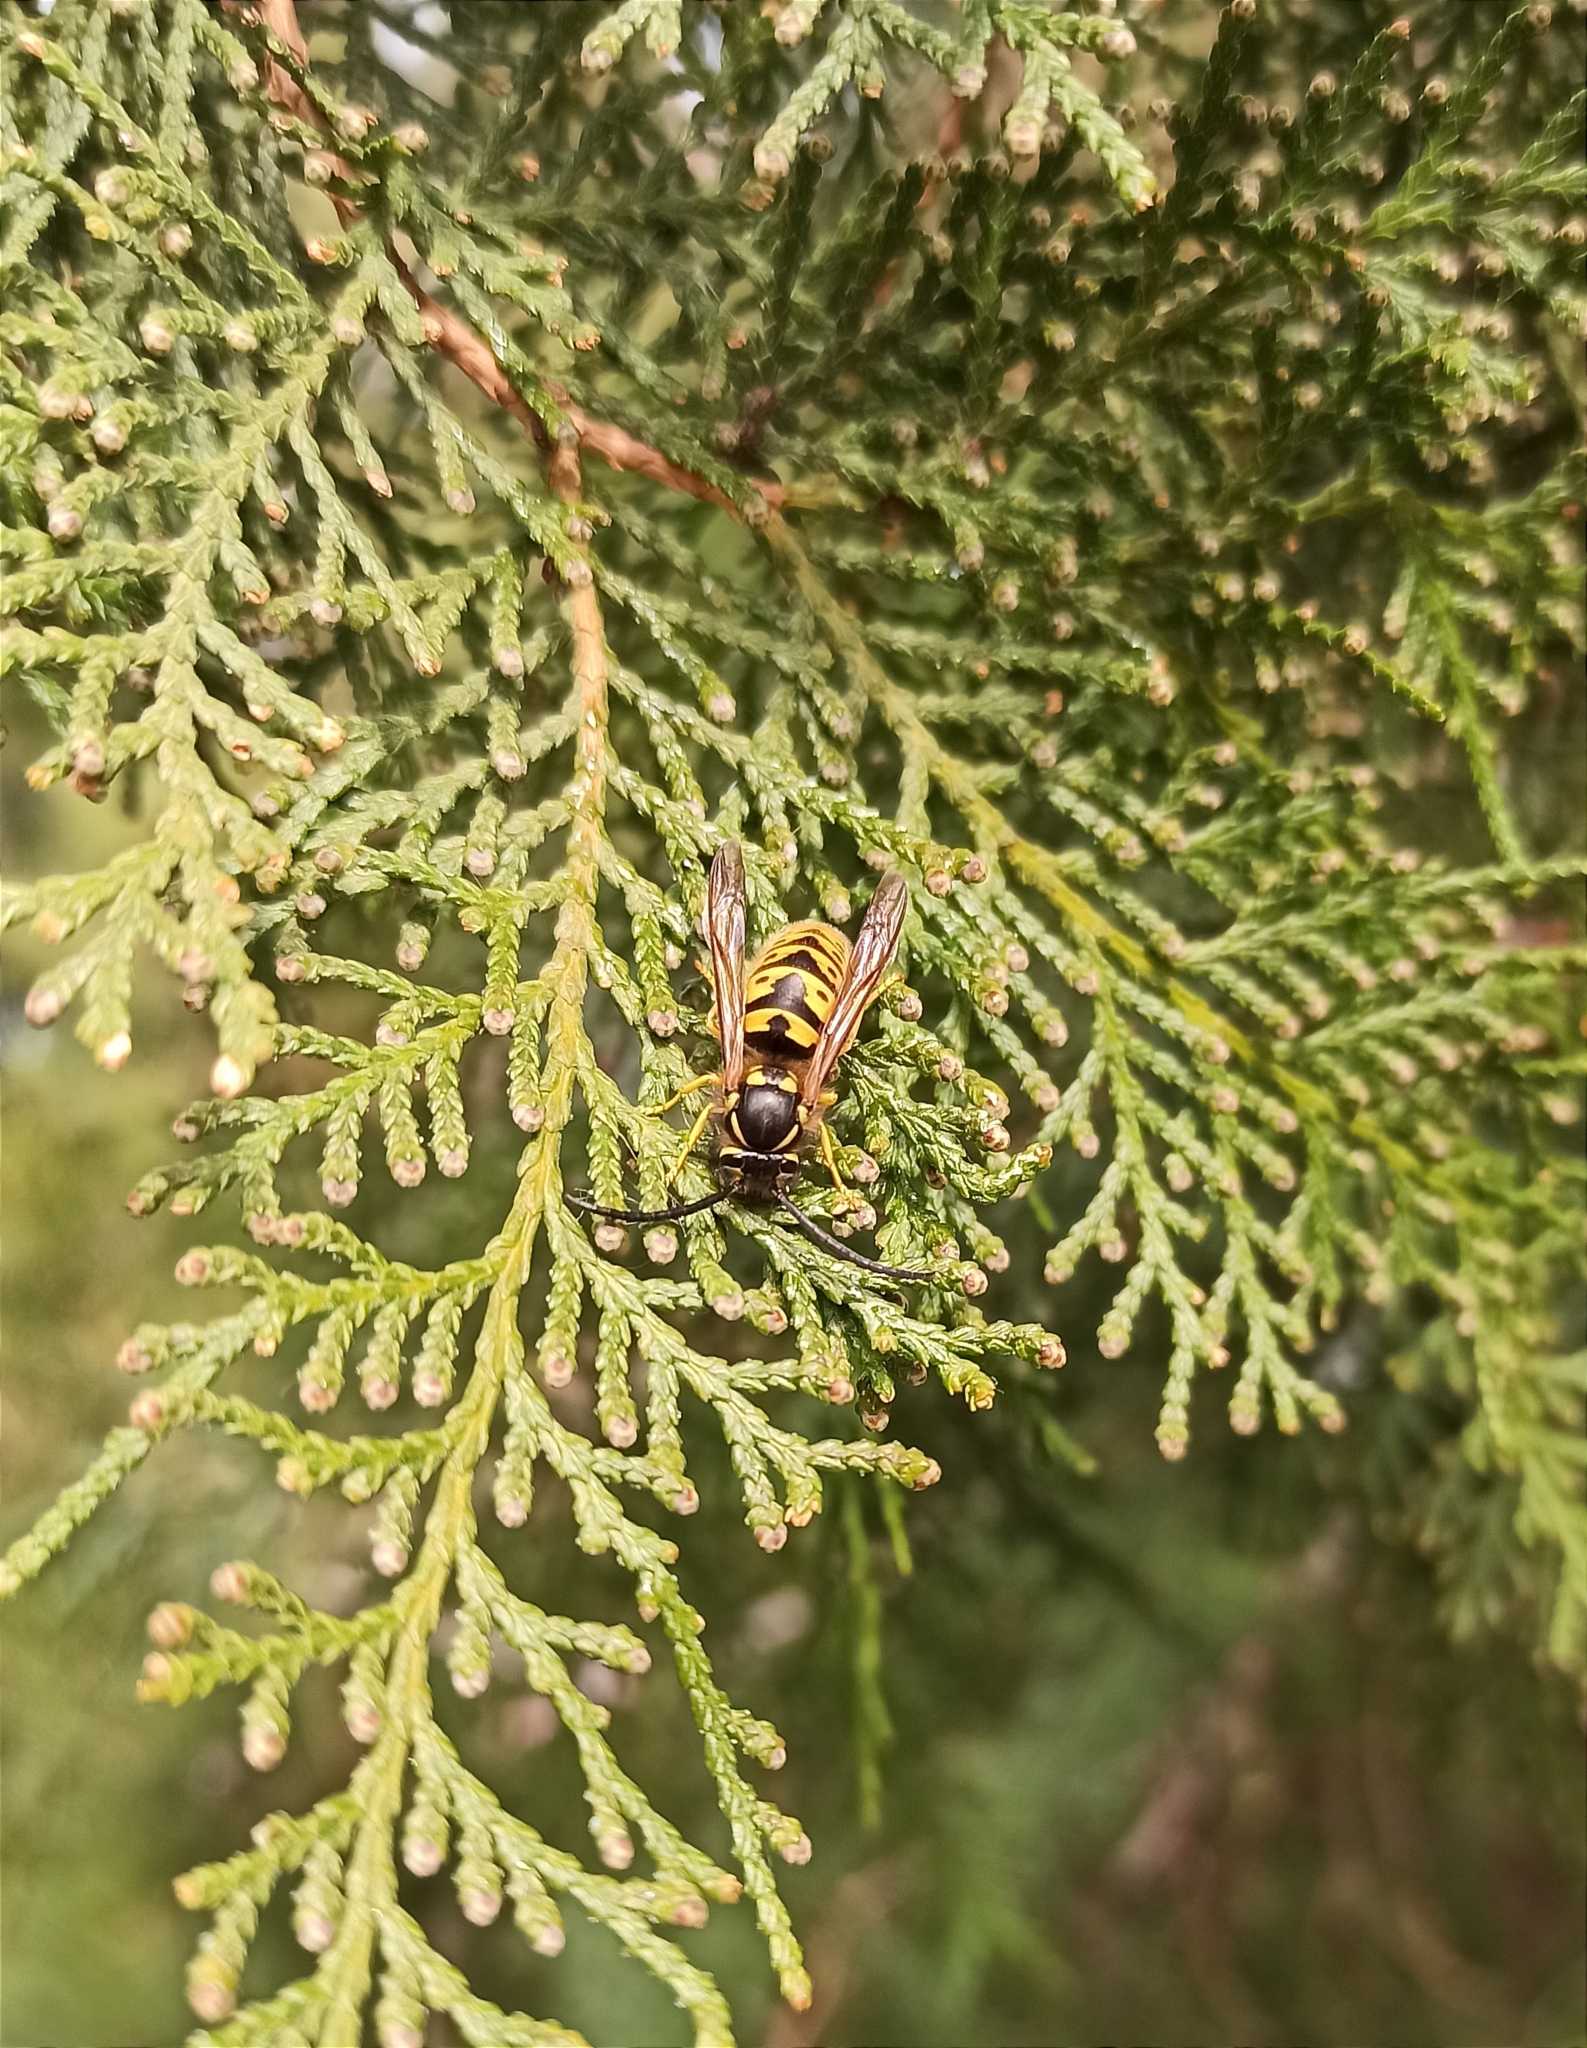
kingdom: Animalia
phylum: Arthropoda
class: Insecta
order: Hymenoptera
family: Vespidae
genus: Vespula
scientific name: Vespula germanica
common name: German wasp
